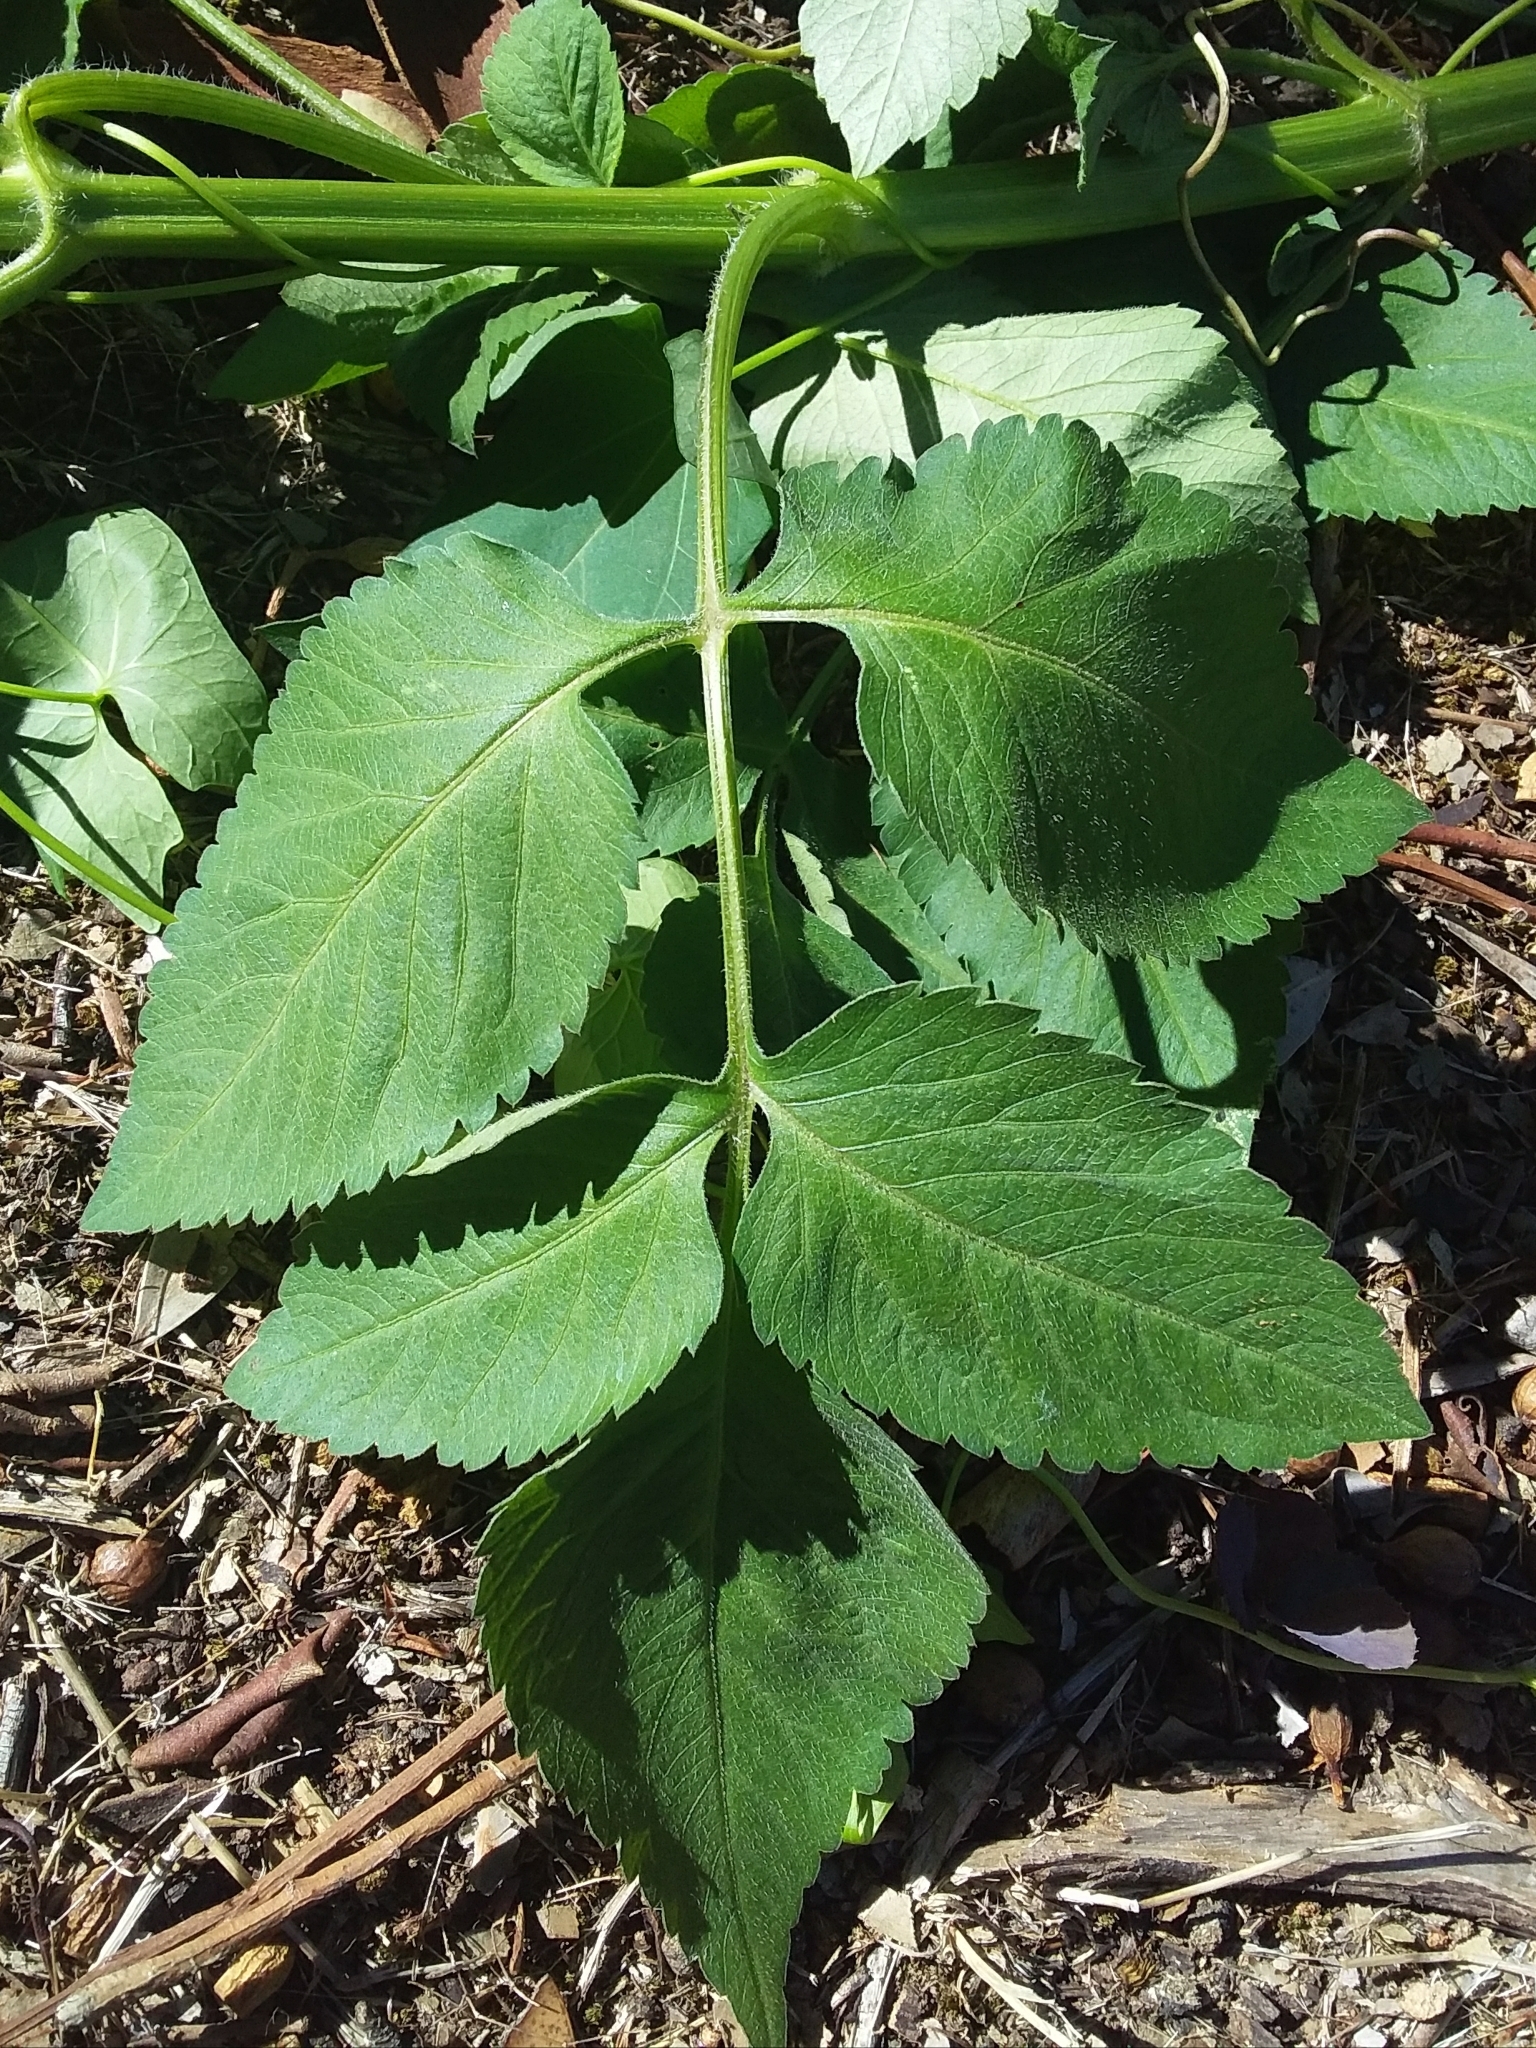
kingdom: Plantae
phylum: Tracheophyta
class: Magnoliopsida
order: Asterales
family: Asteraceae
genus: Bidens
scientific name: Bidens pilosa
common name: Black-jack
